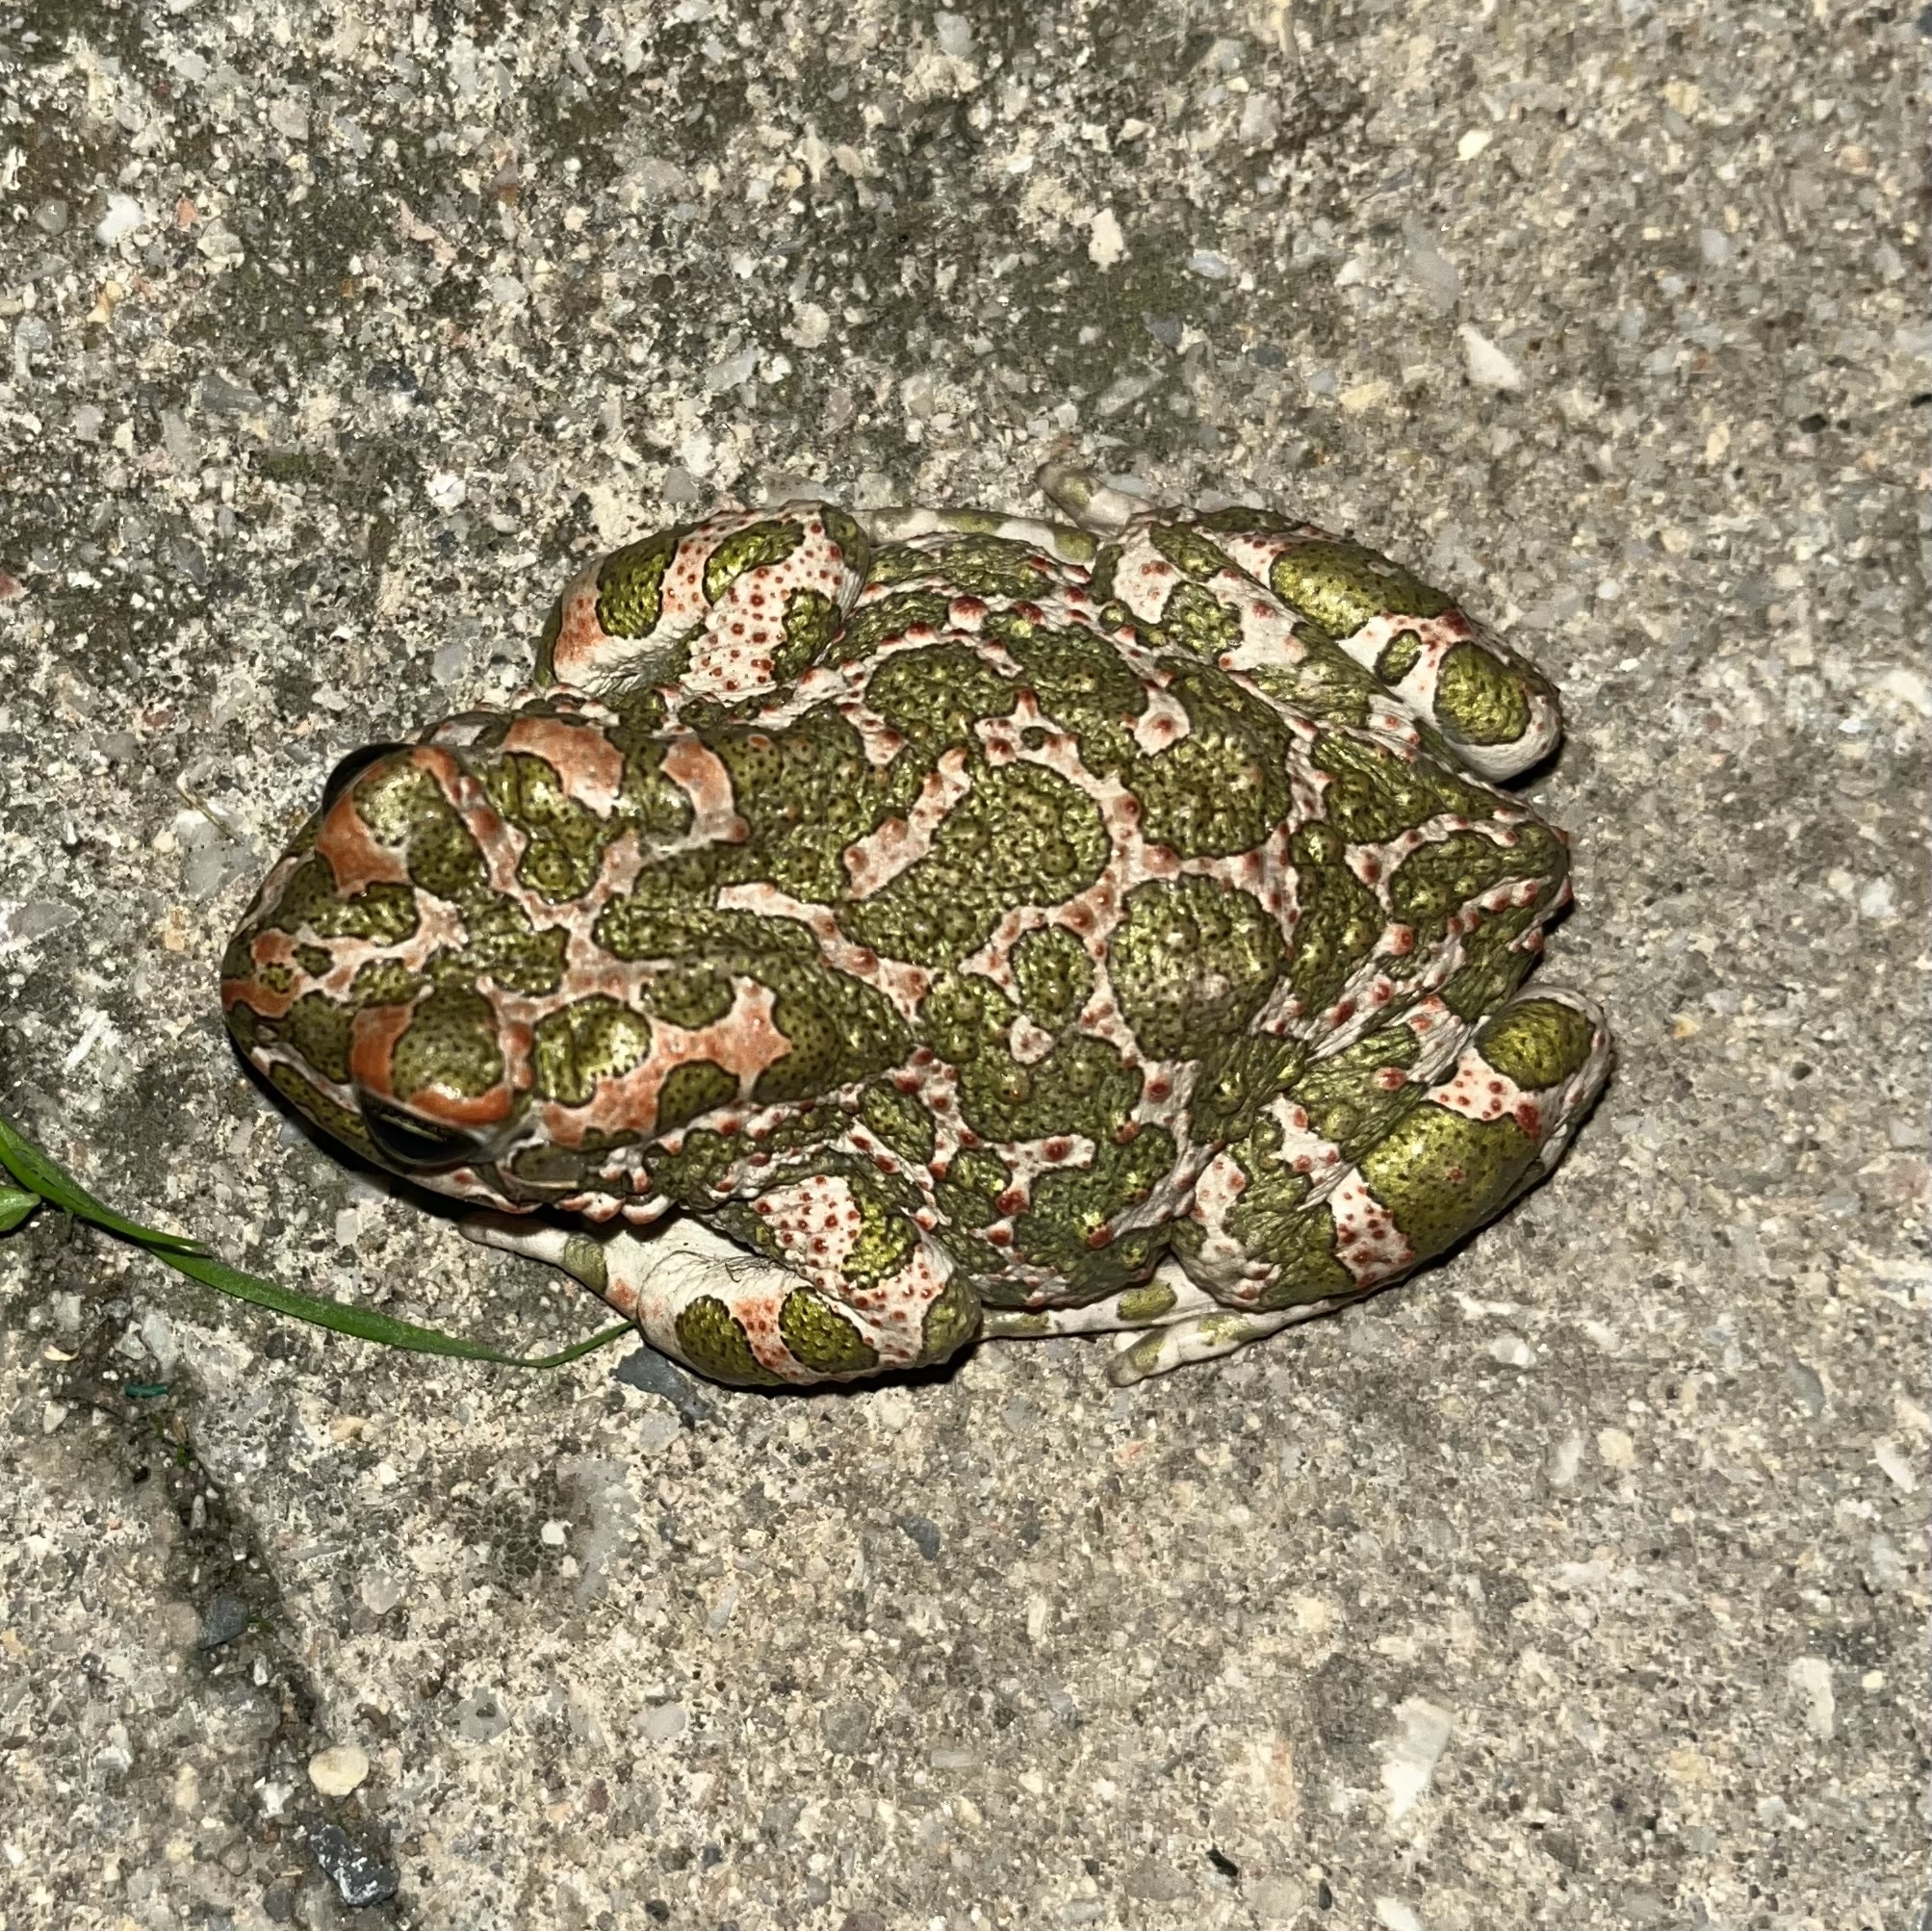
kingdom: Animalia
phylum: Chordata
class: Amphibia
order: Anura
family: Bufonidae
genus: Bufotes
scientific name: Bufotes viridis
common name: European green toad
